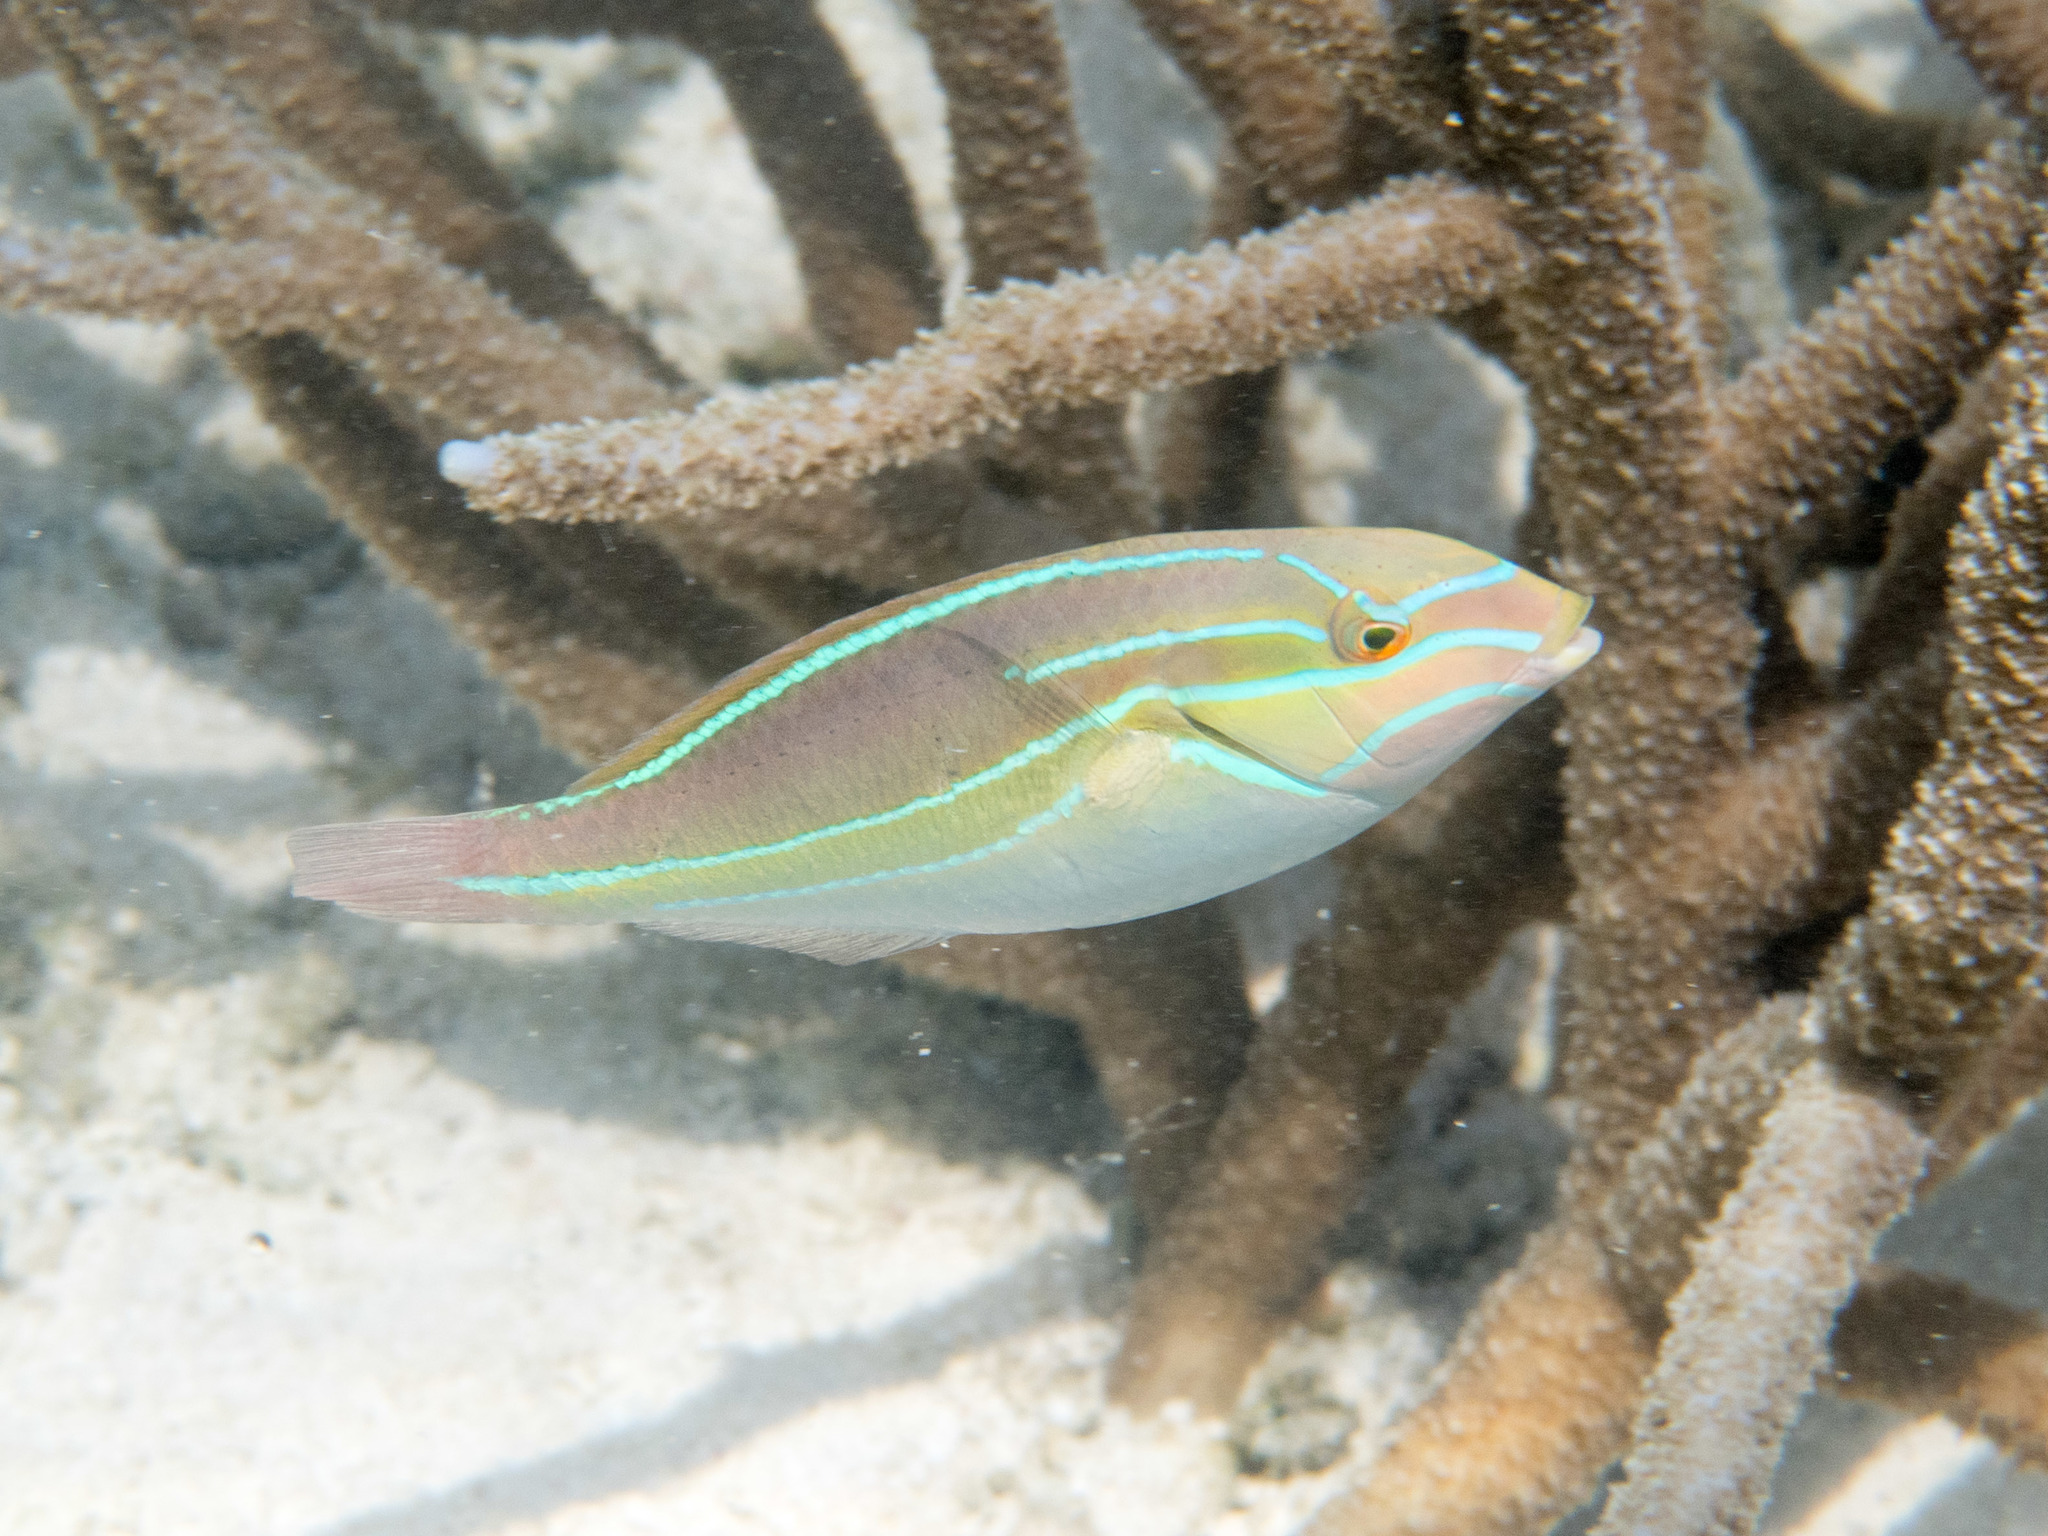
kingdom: Animalia
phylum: Chordata
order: Perciformes
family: Labridae
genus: Stethojulis
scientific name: Stethojulis albovittata
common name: Bluelined wrasse
